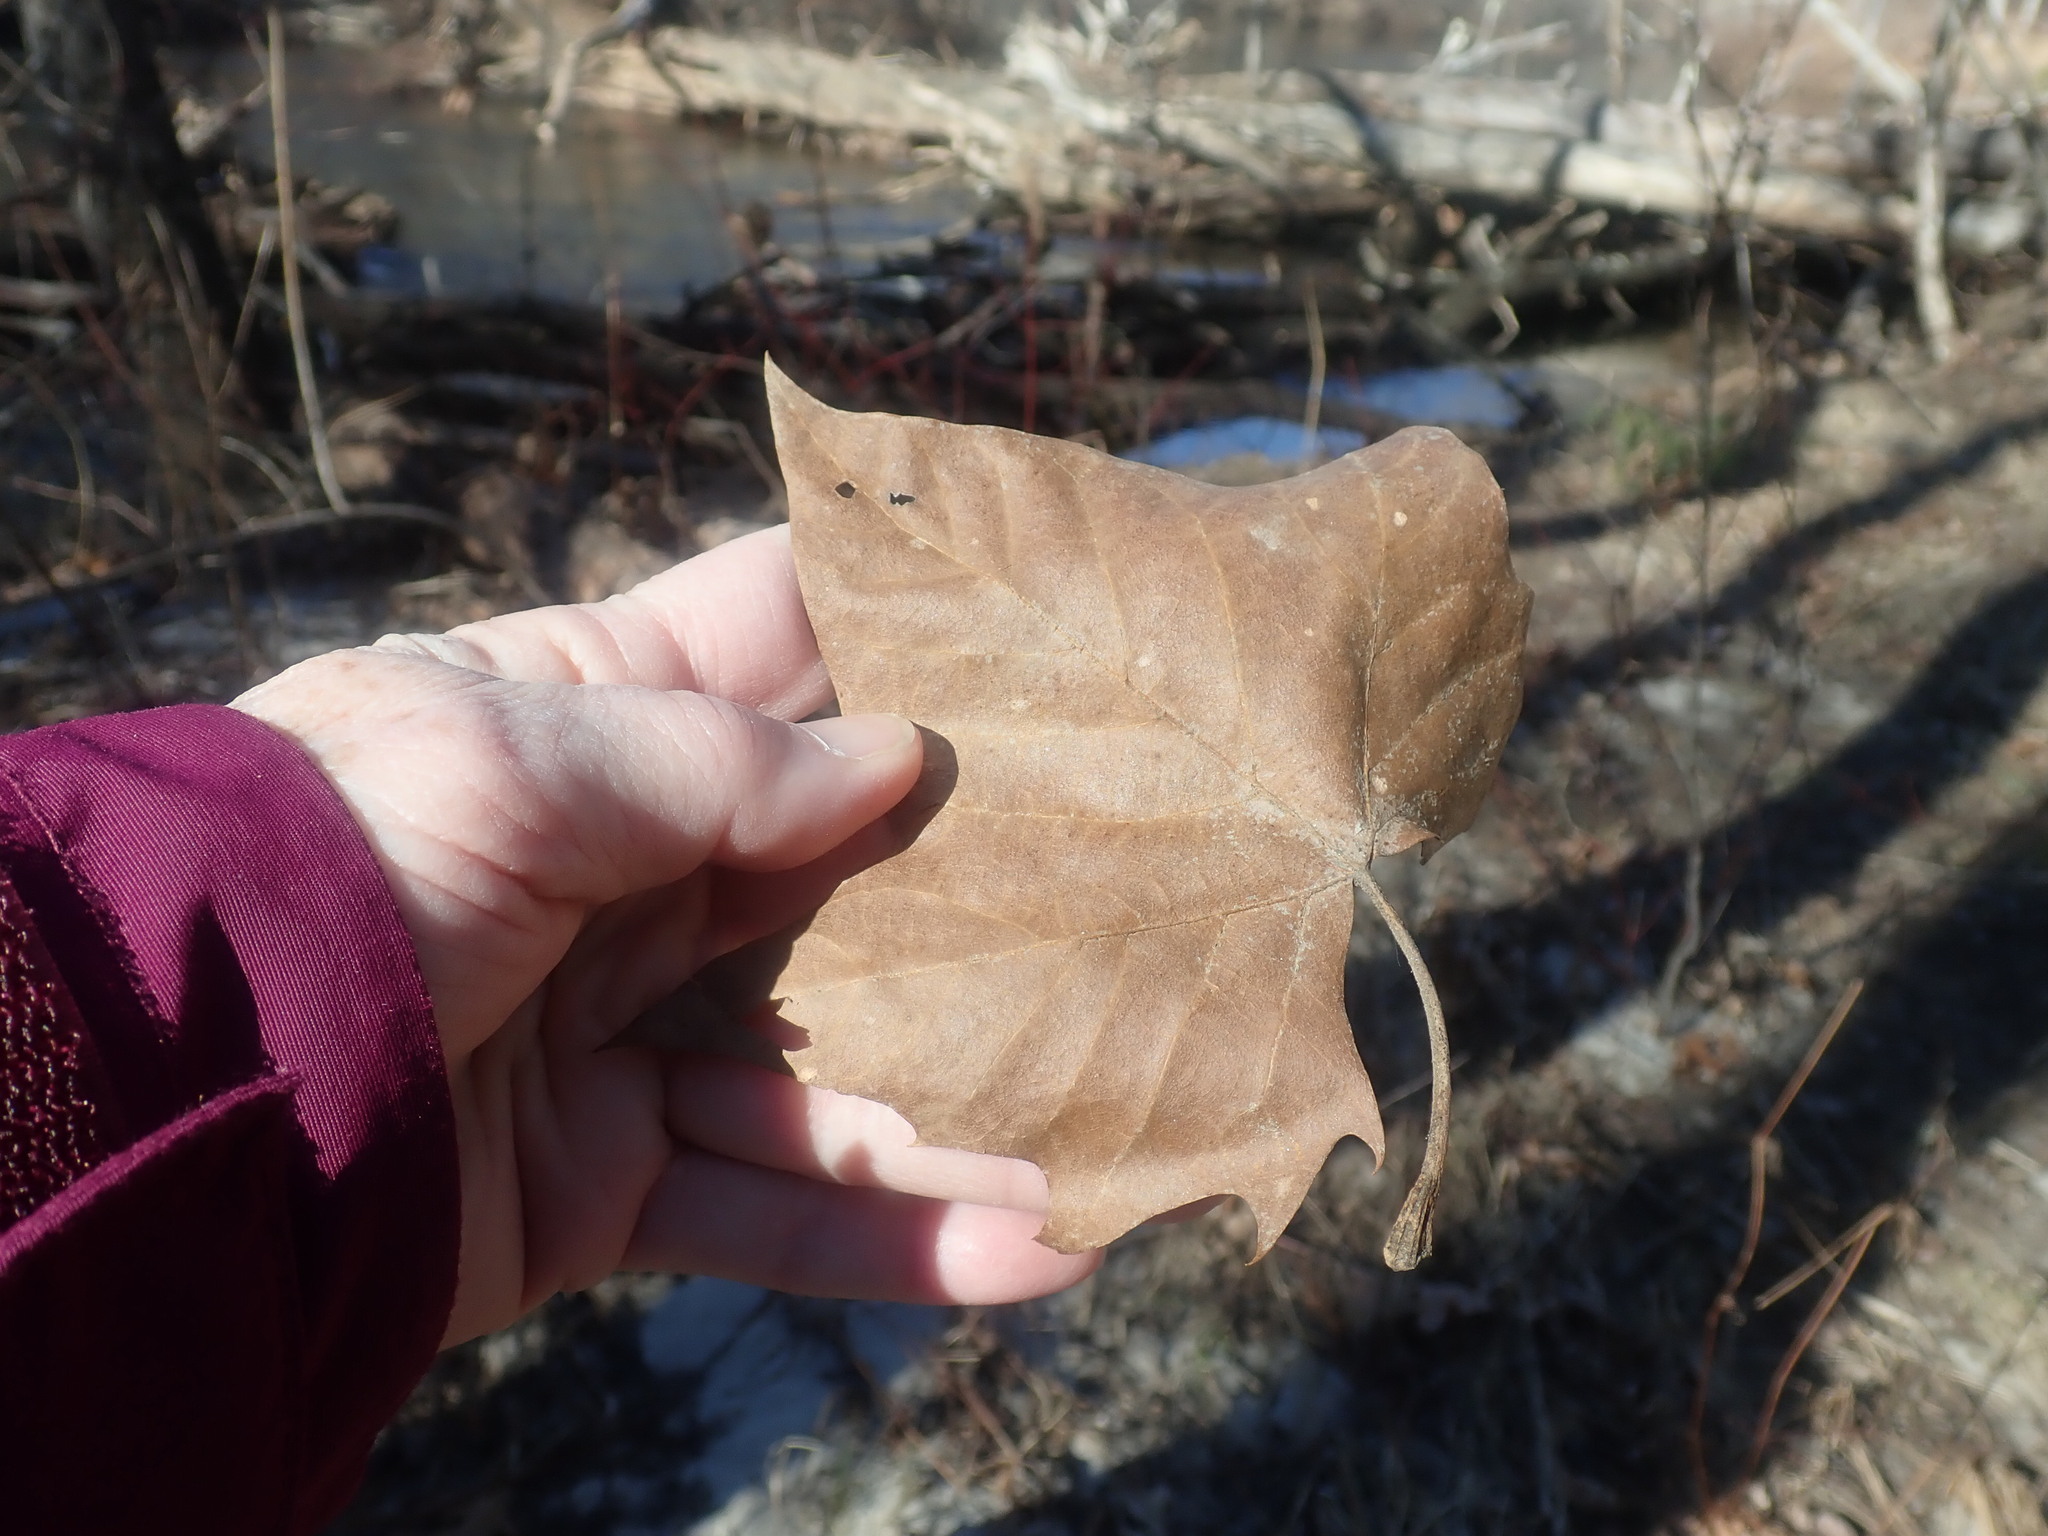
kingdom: Plantae
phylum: Tracheophyta
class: Magnoliopsida
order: Proteales
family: Platanaceae
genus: Platanus
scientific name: Platanus occidentalis
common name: American sycamore
